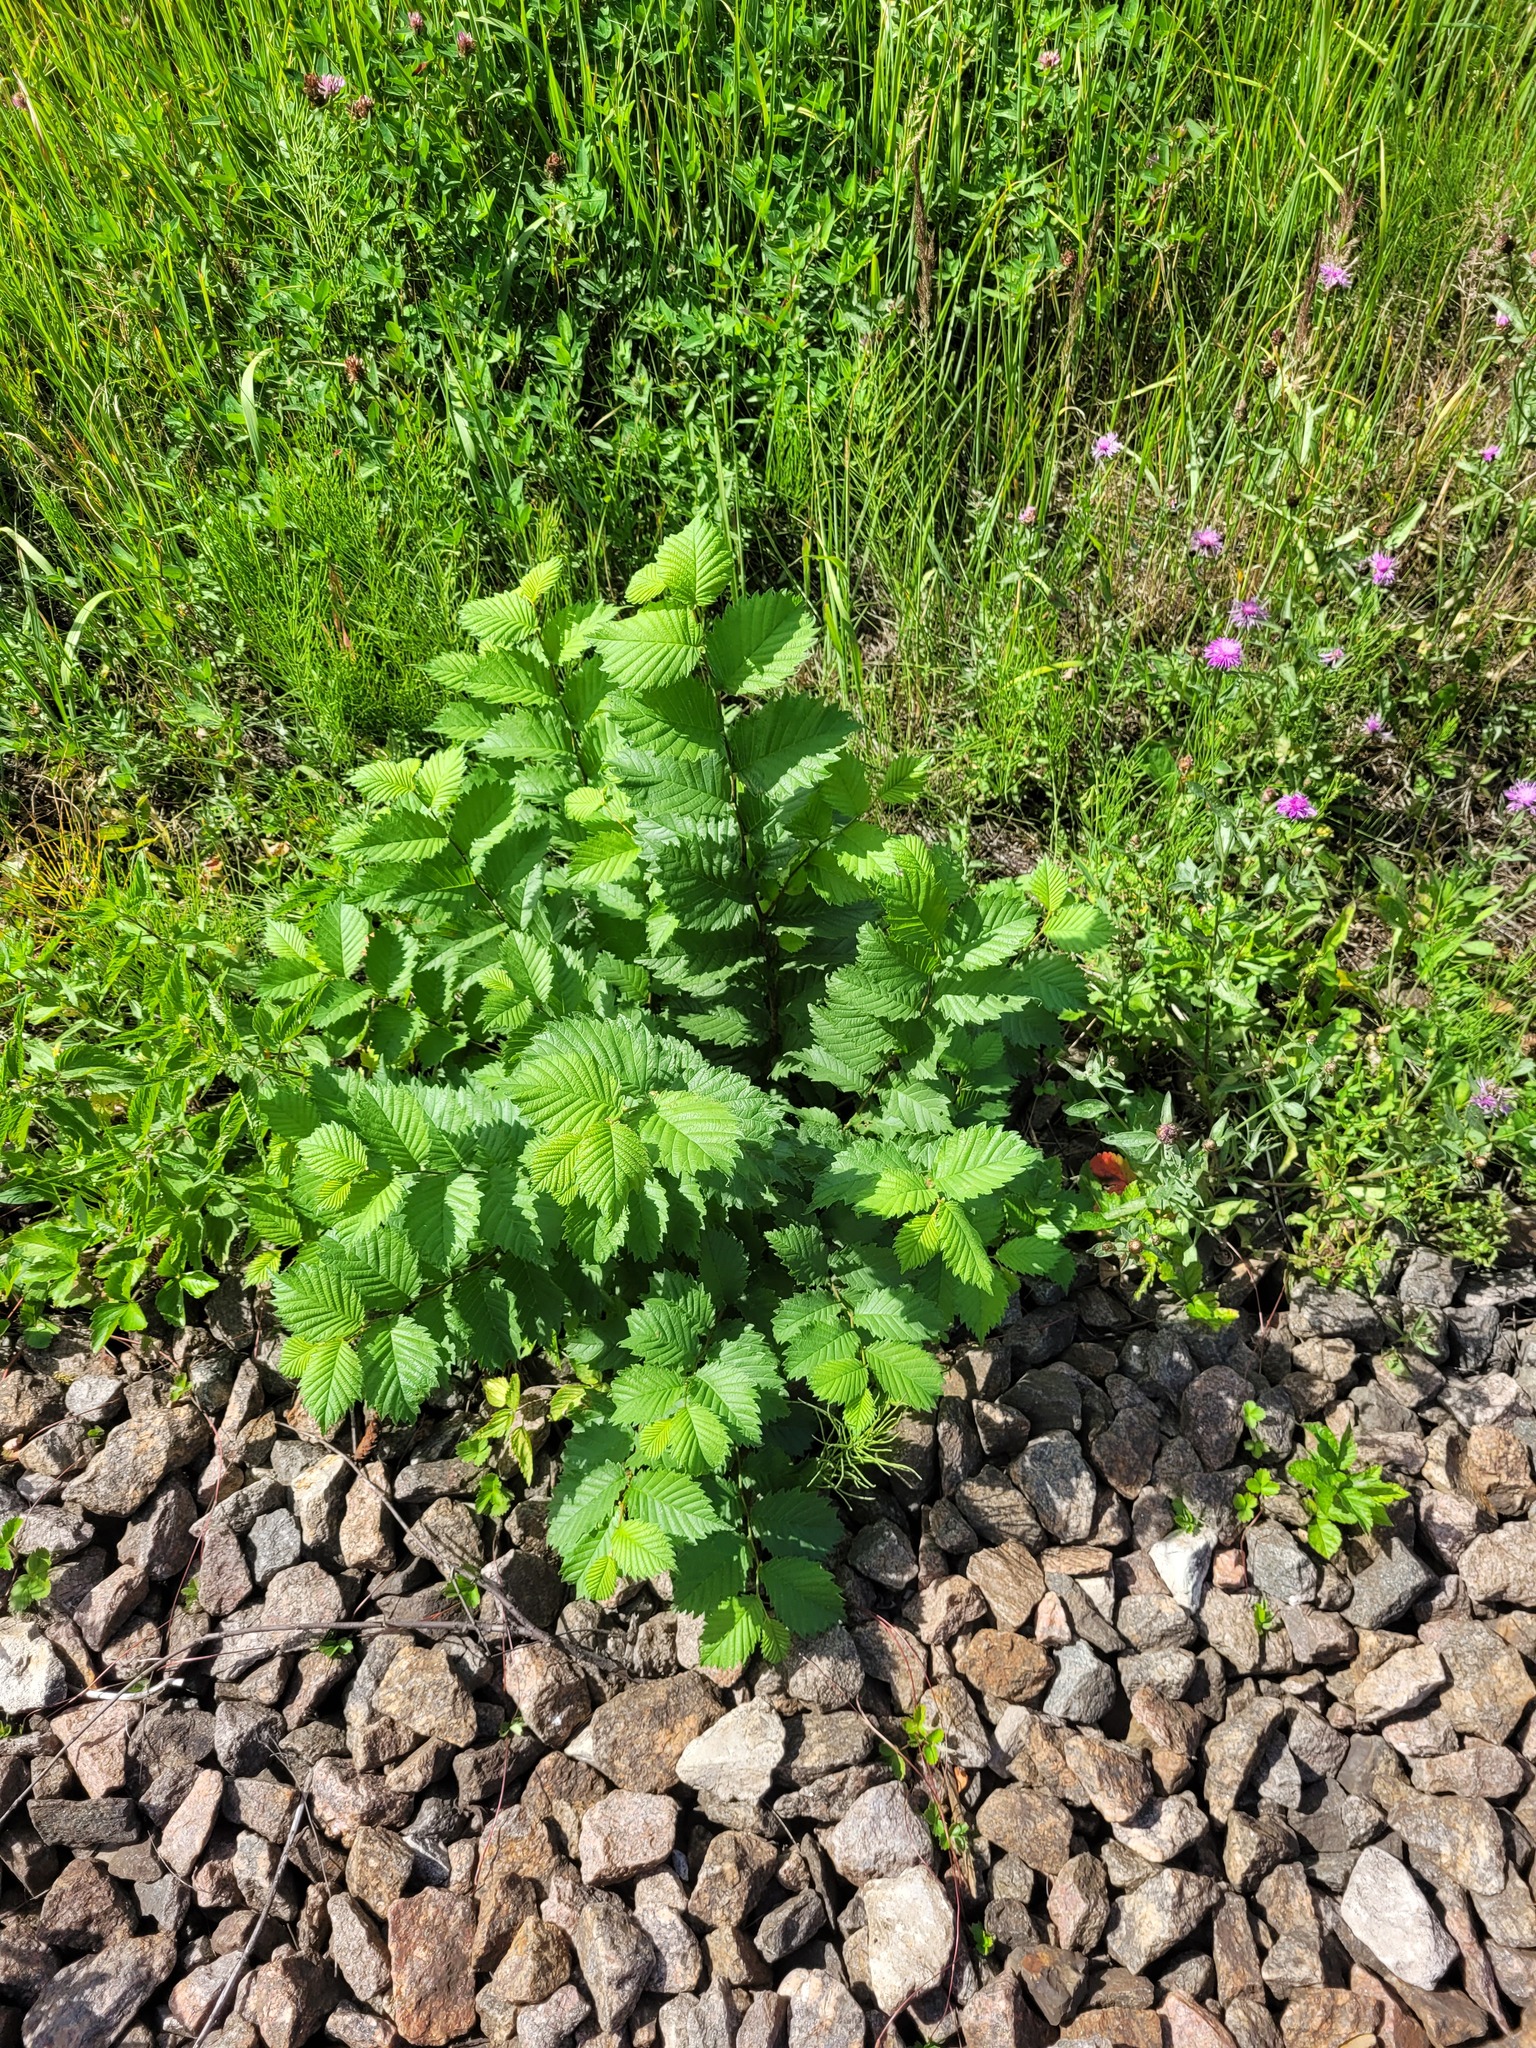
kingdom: Plantae
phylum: Tracheophyta
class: Magnoliopsida
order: Rosales
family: Ulmaceae
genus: Ulmus
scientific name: Ulmus laevis
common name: European white-elm
